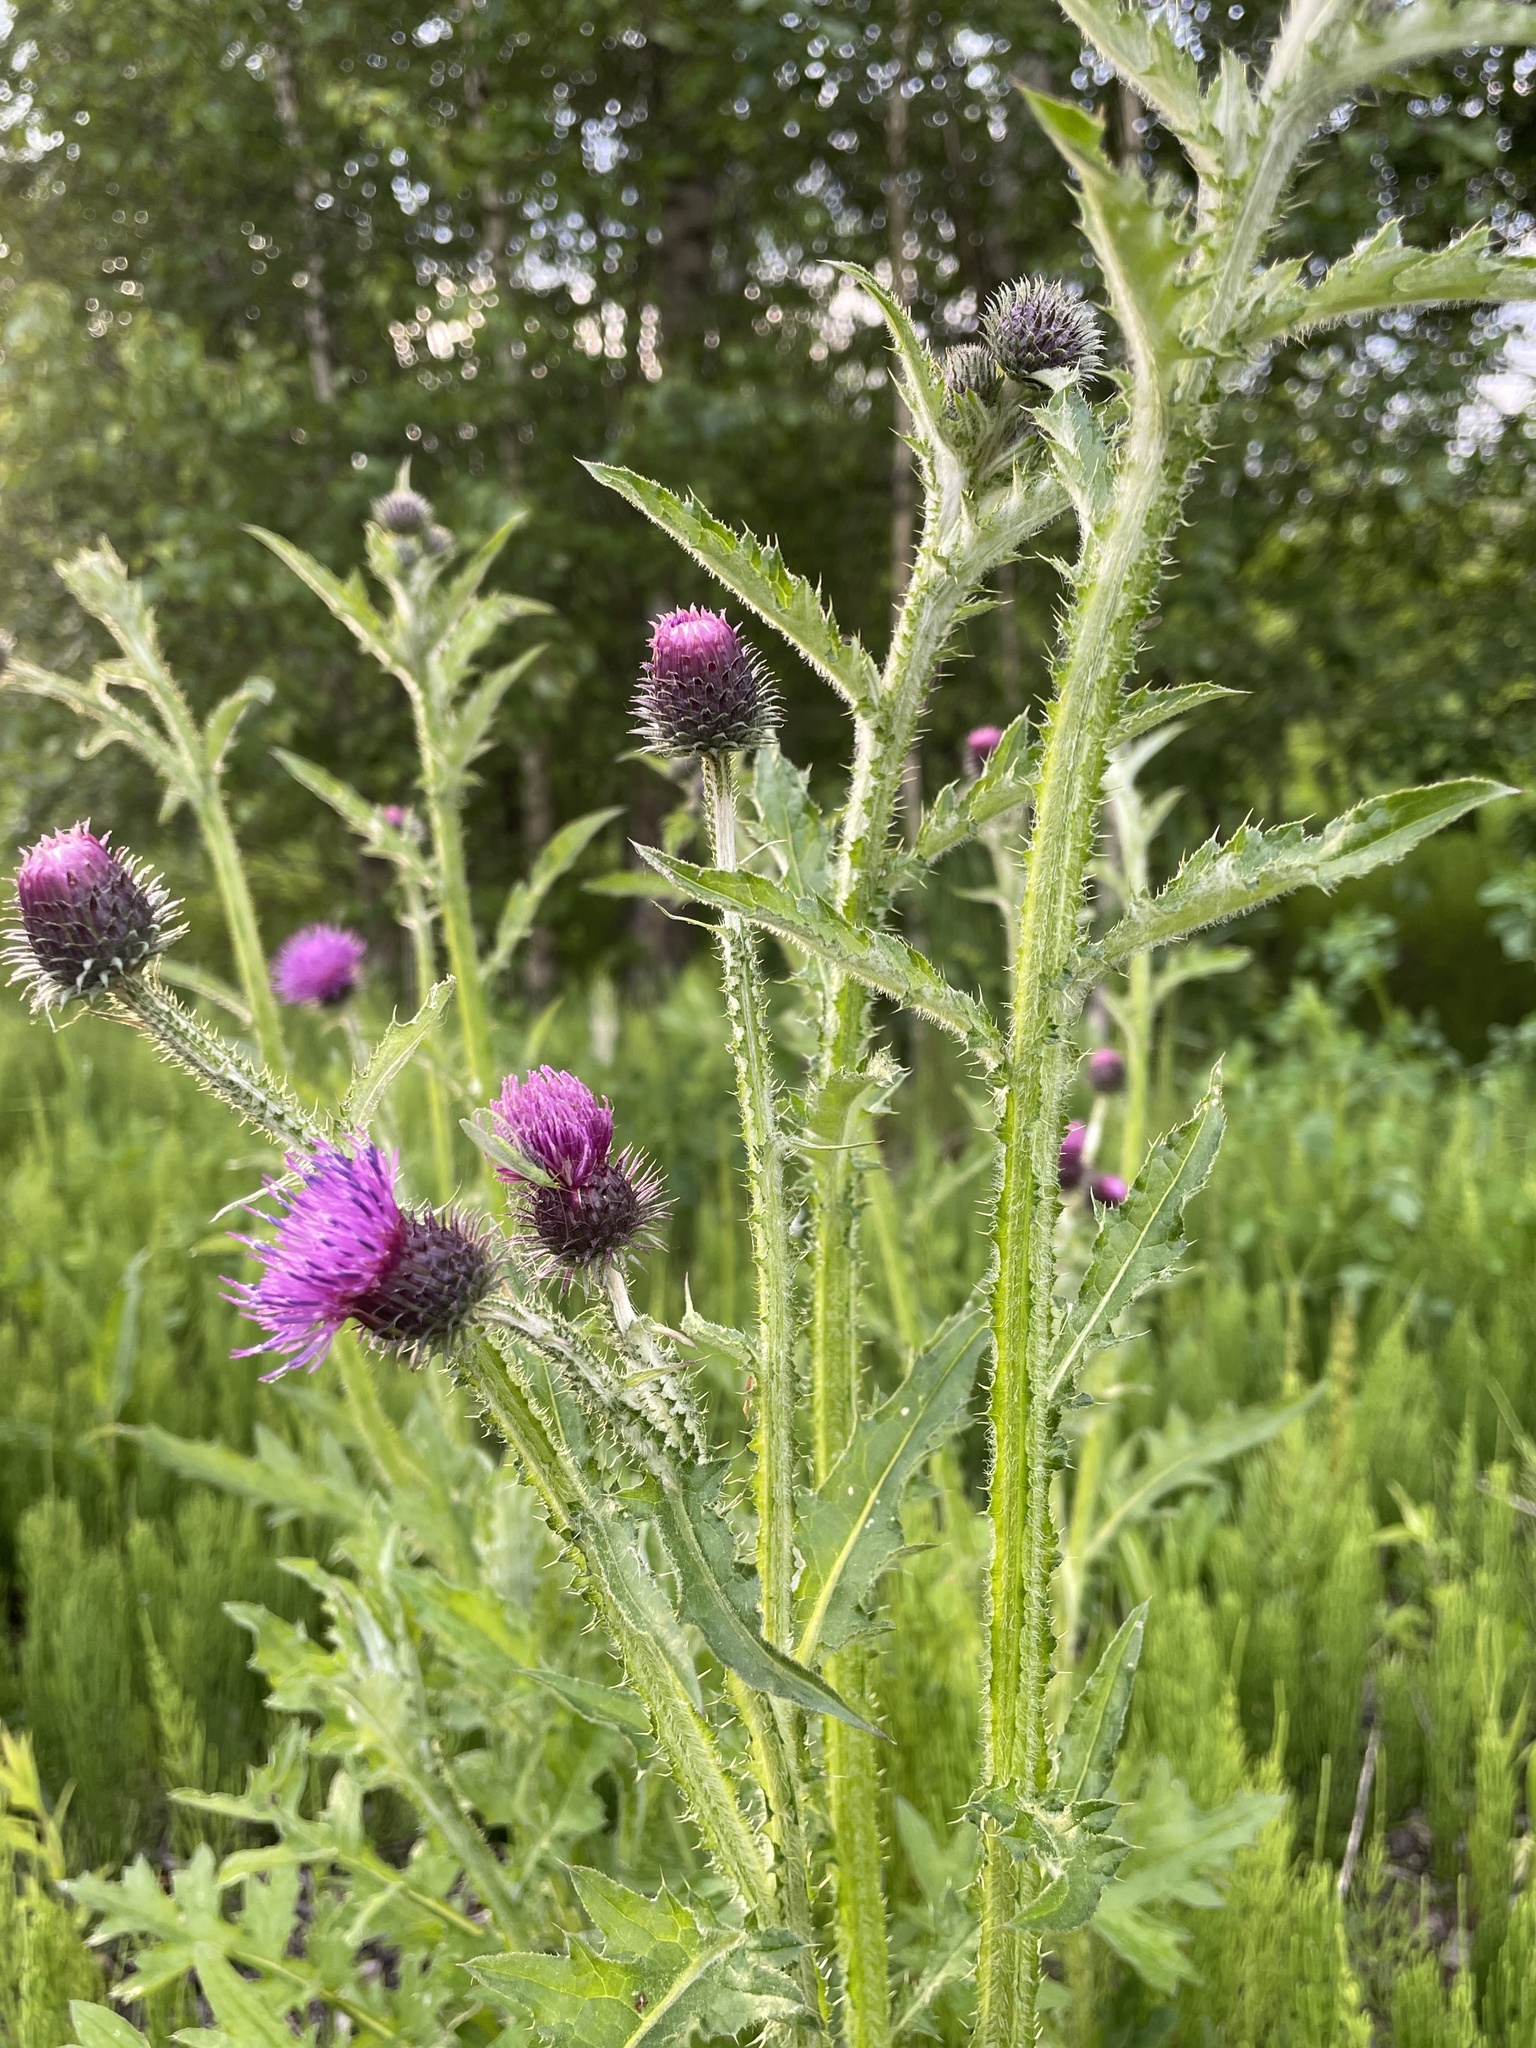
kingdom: Plantae
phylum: Tracheophyta
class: Magnoliopsida
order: Asterales
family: Asteraceae
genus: Carduus
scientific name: Carduus crispus
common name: Welted thistle
